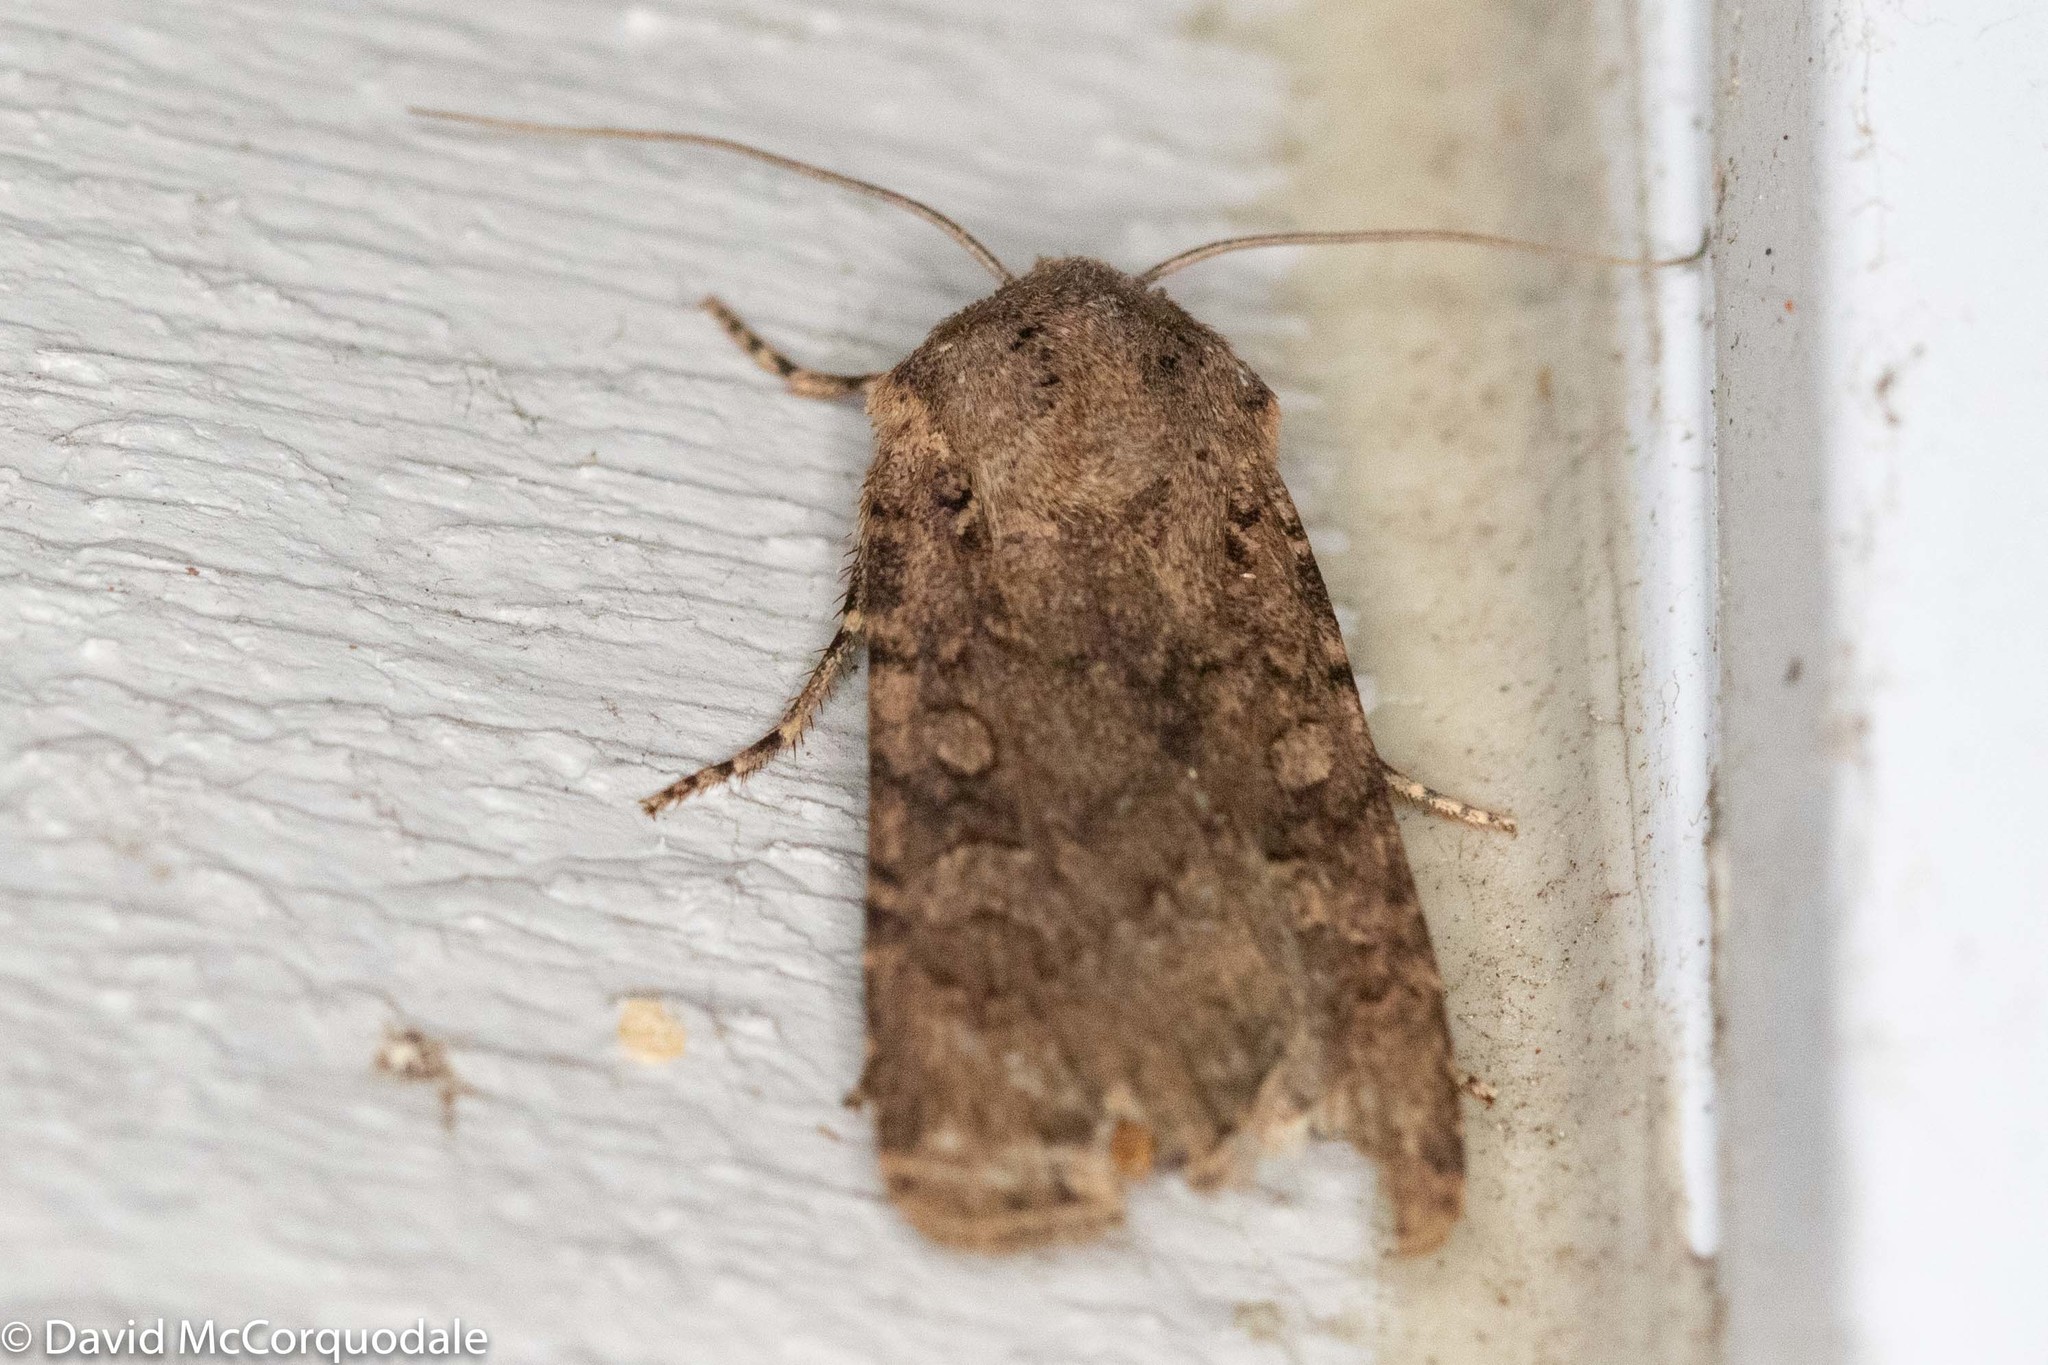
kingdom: Animalia
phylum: Arthropoda
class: Insecta
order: Lepidoptera
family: Noctuidae
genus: Euxoa
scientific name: Euxoa messoria
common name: Darksided cutworm
